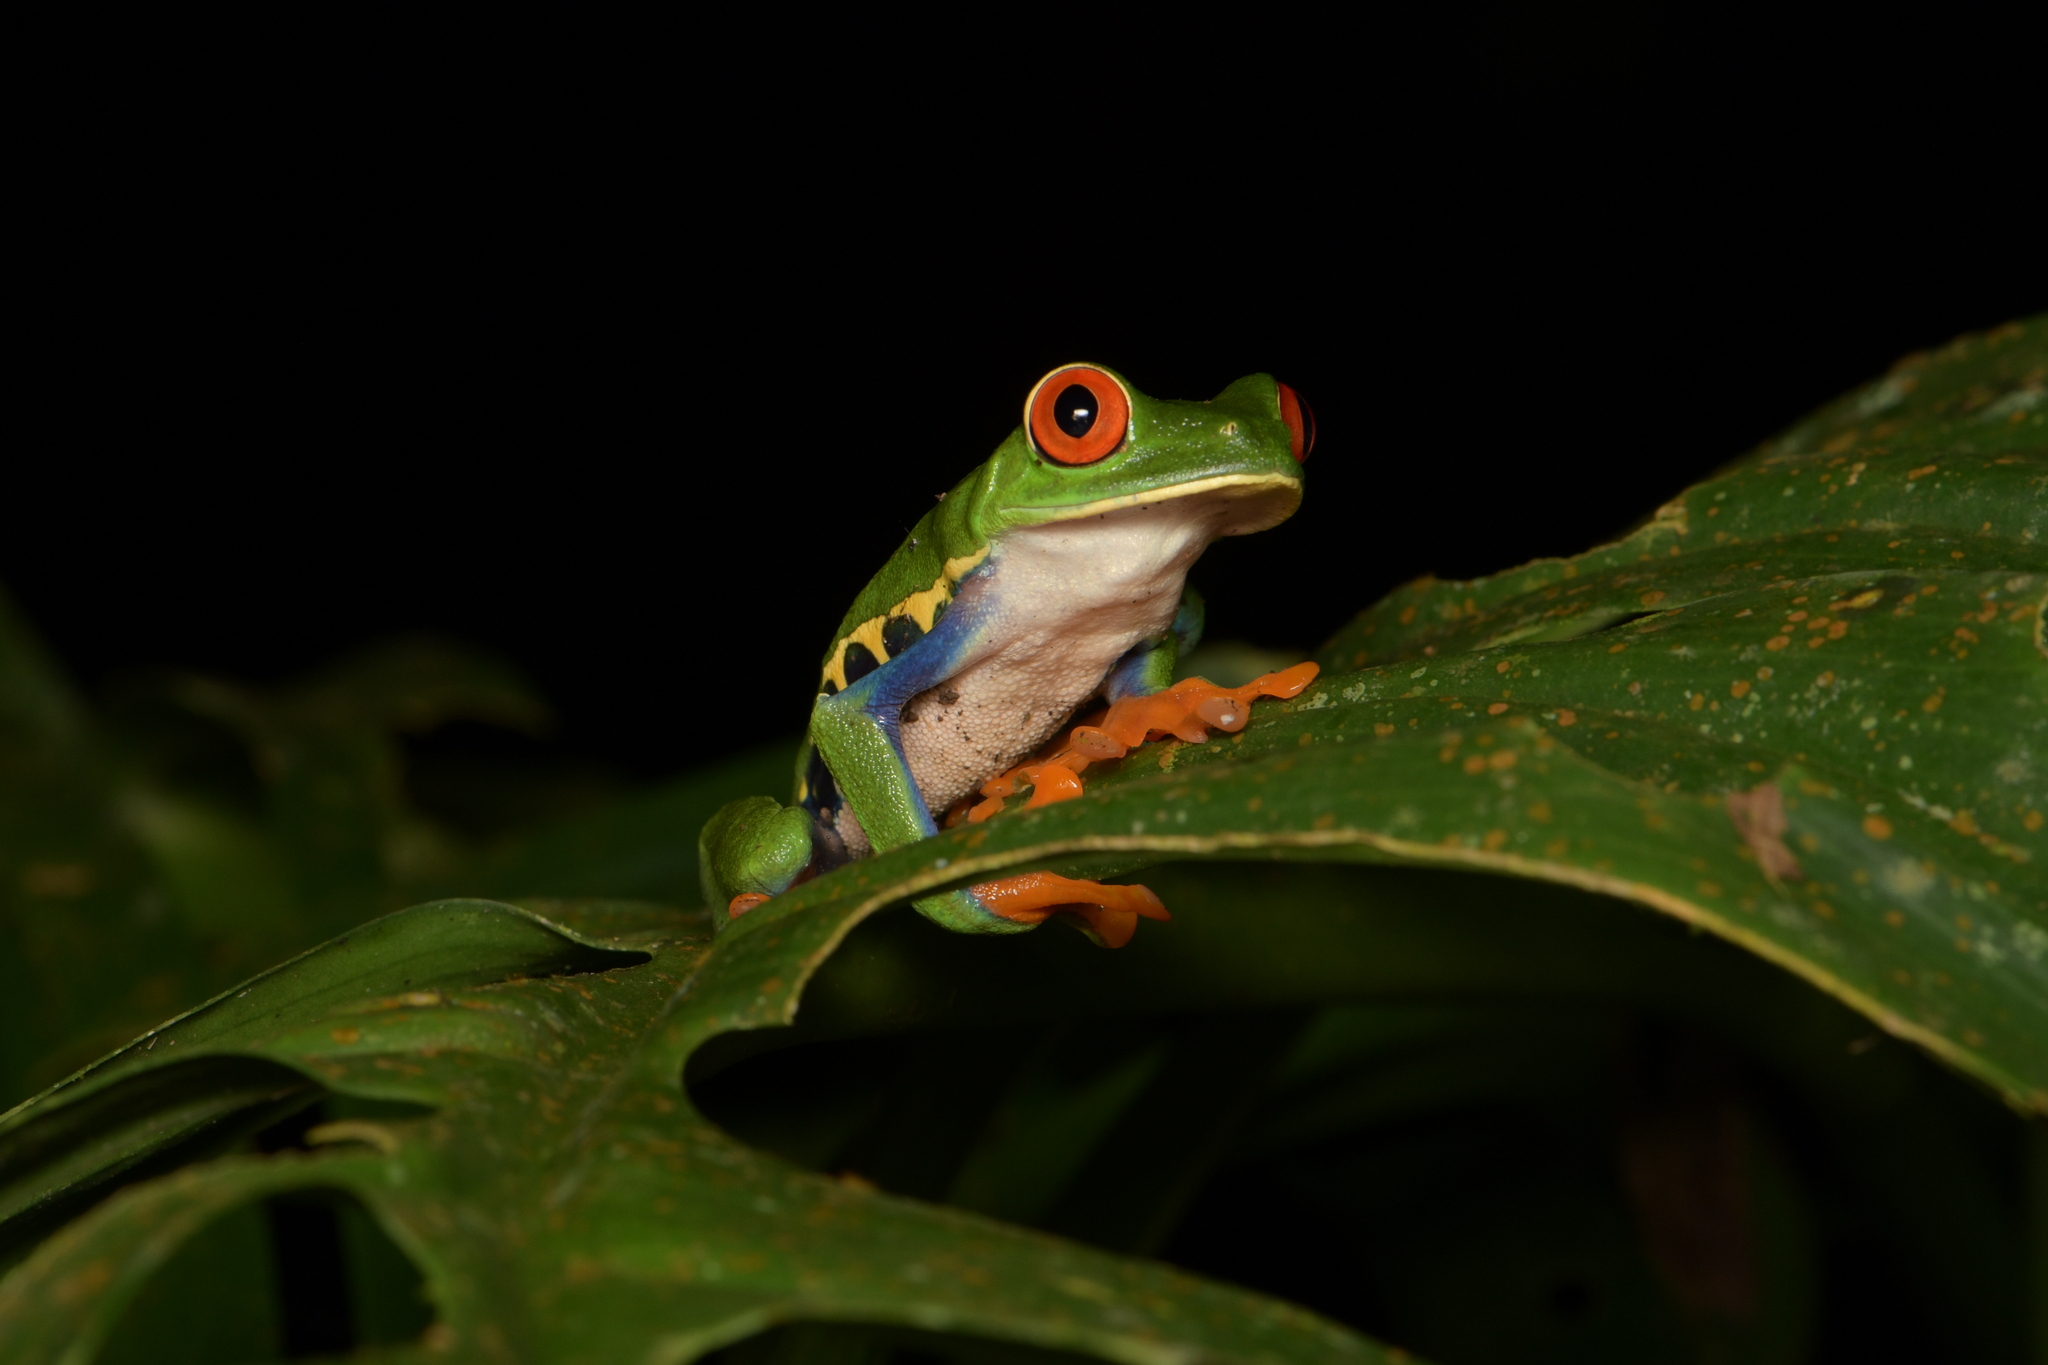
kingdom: Animalia
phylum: Chordata
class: Amphibia
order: Anura
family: Phyllomedusidae
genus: Agalychnis
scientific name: Agalychnis callidryas
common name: Red-eyed treefrog
